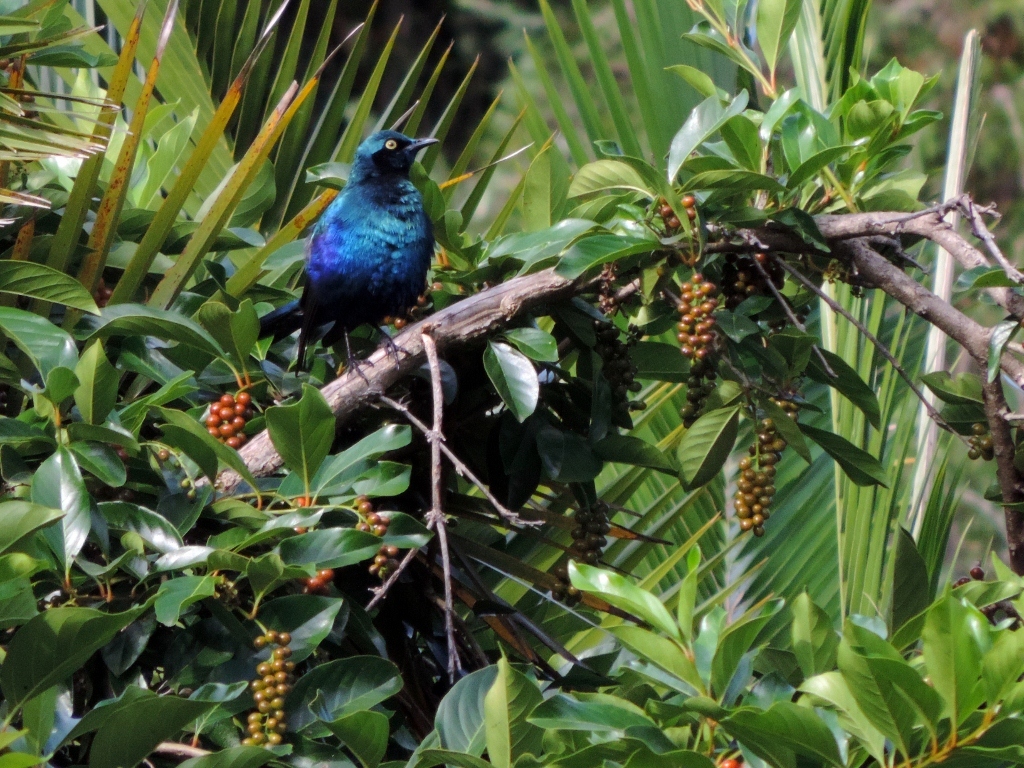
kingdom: Animalia
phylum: Chordata
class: Aves
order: Passeriformes
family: Sturnidae
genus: Lamprotornis
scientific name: Lamprotornis chalybaeus
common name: Greater blue-eared starling
